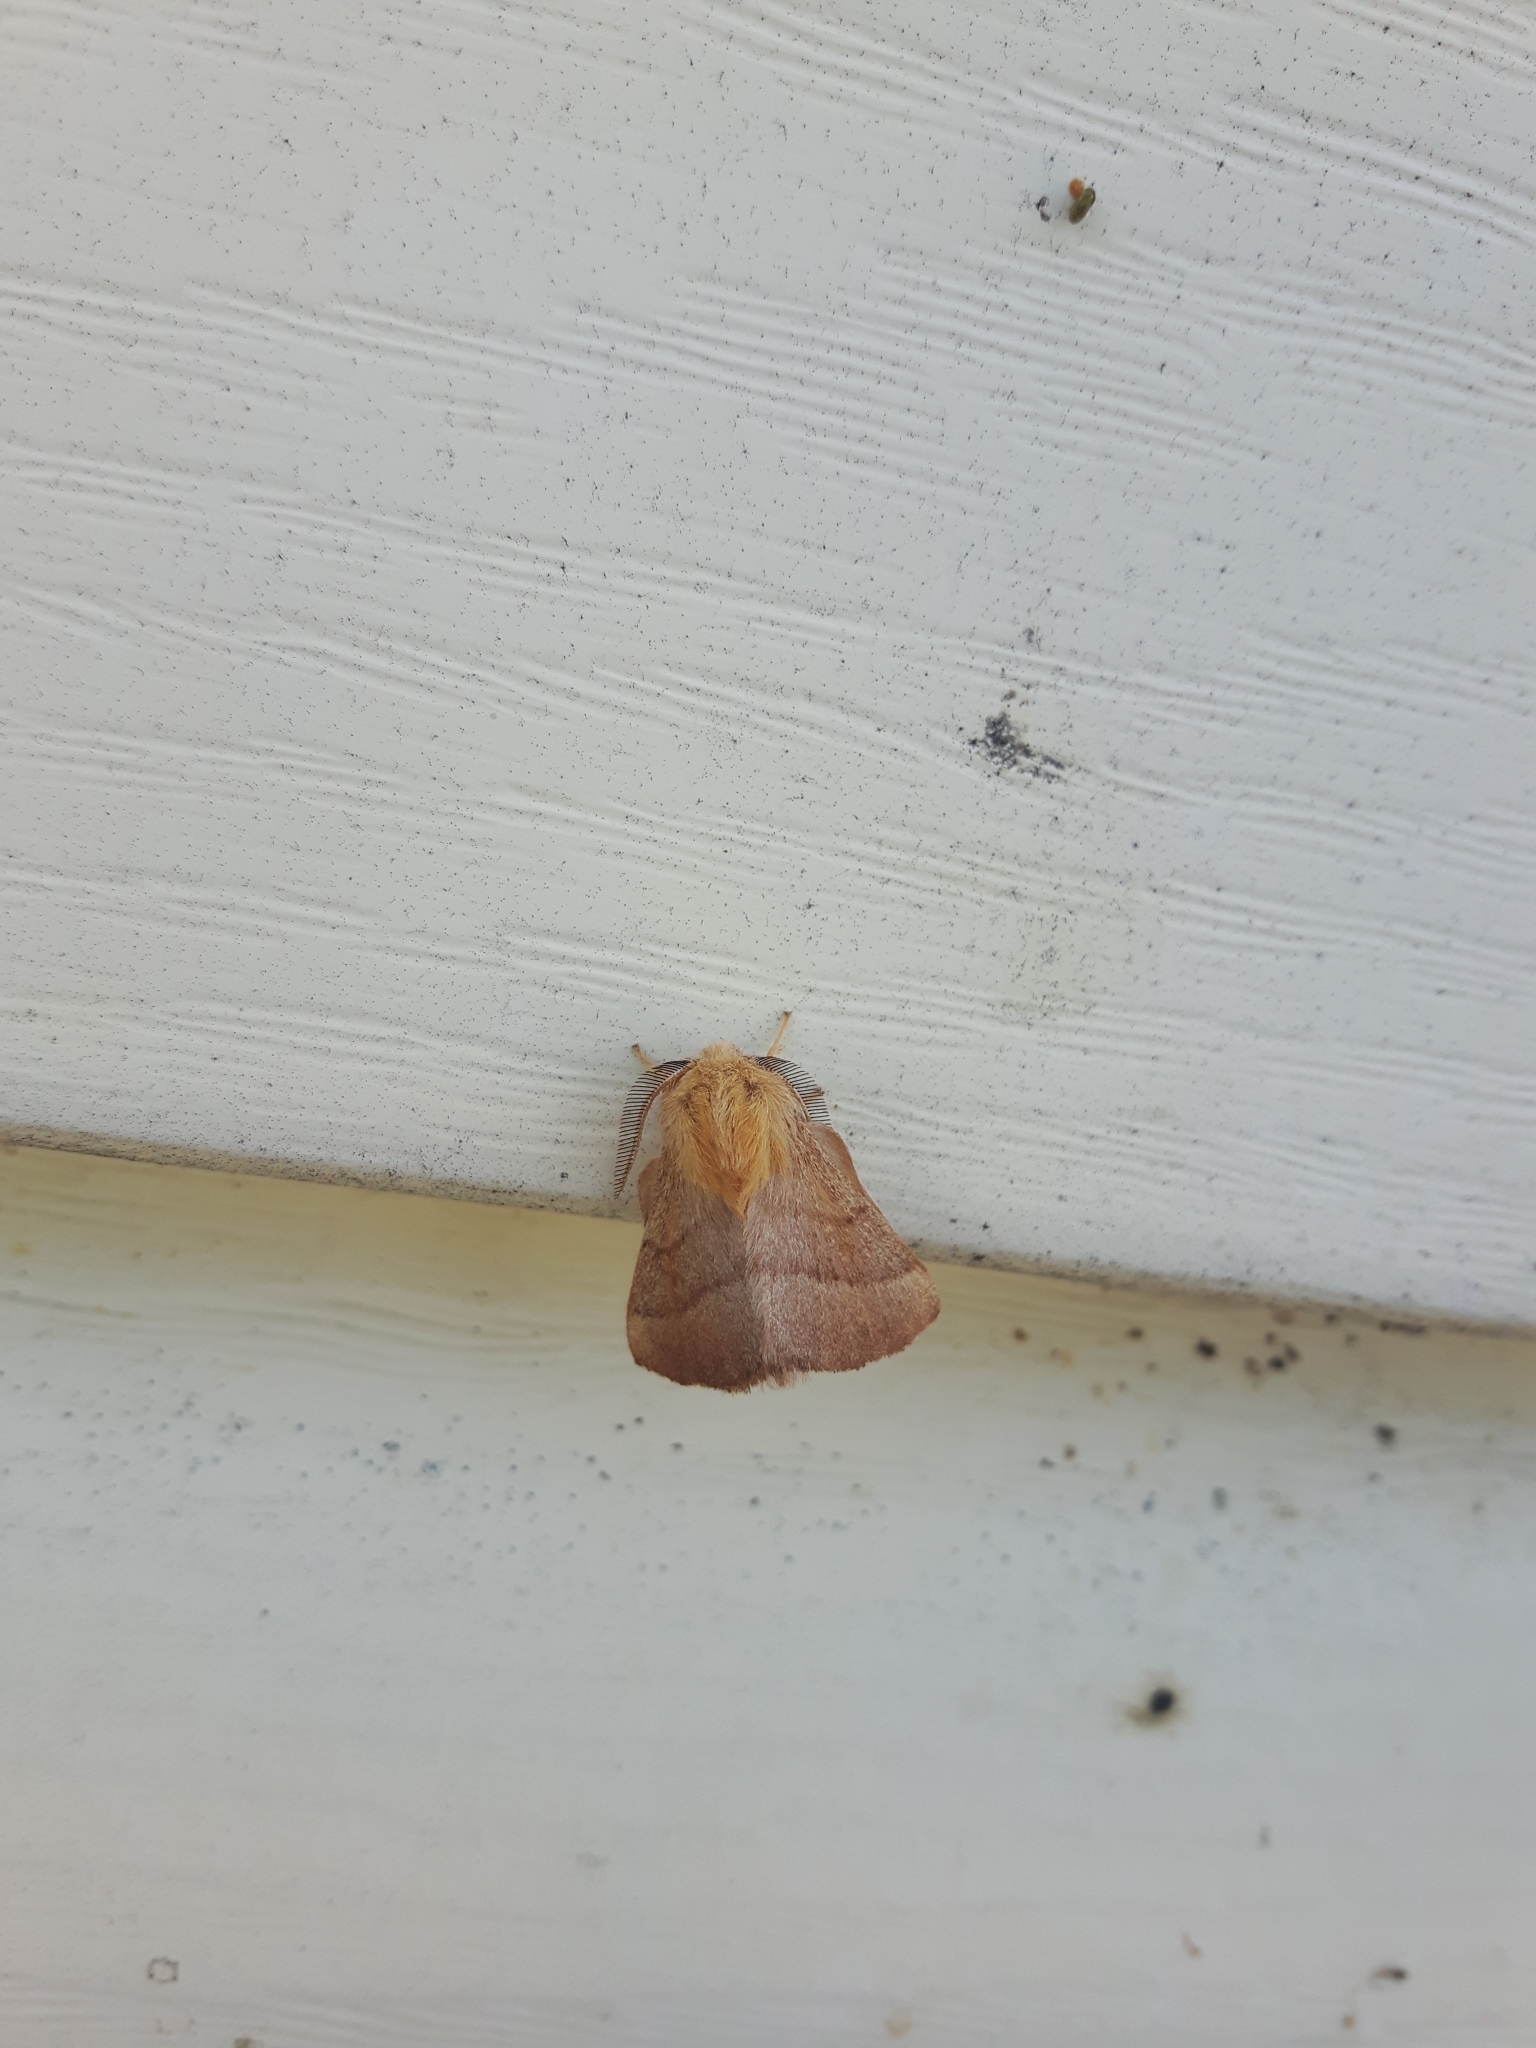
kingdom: Animalia
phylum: Arthropoda
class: Insecta
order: Lepidoptera
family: Lasiocampidae
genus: Malacosoma
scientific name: Malacosoma disstria
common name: Forest tent caterpillar
